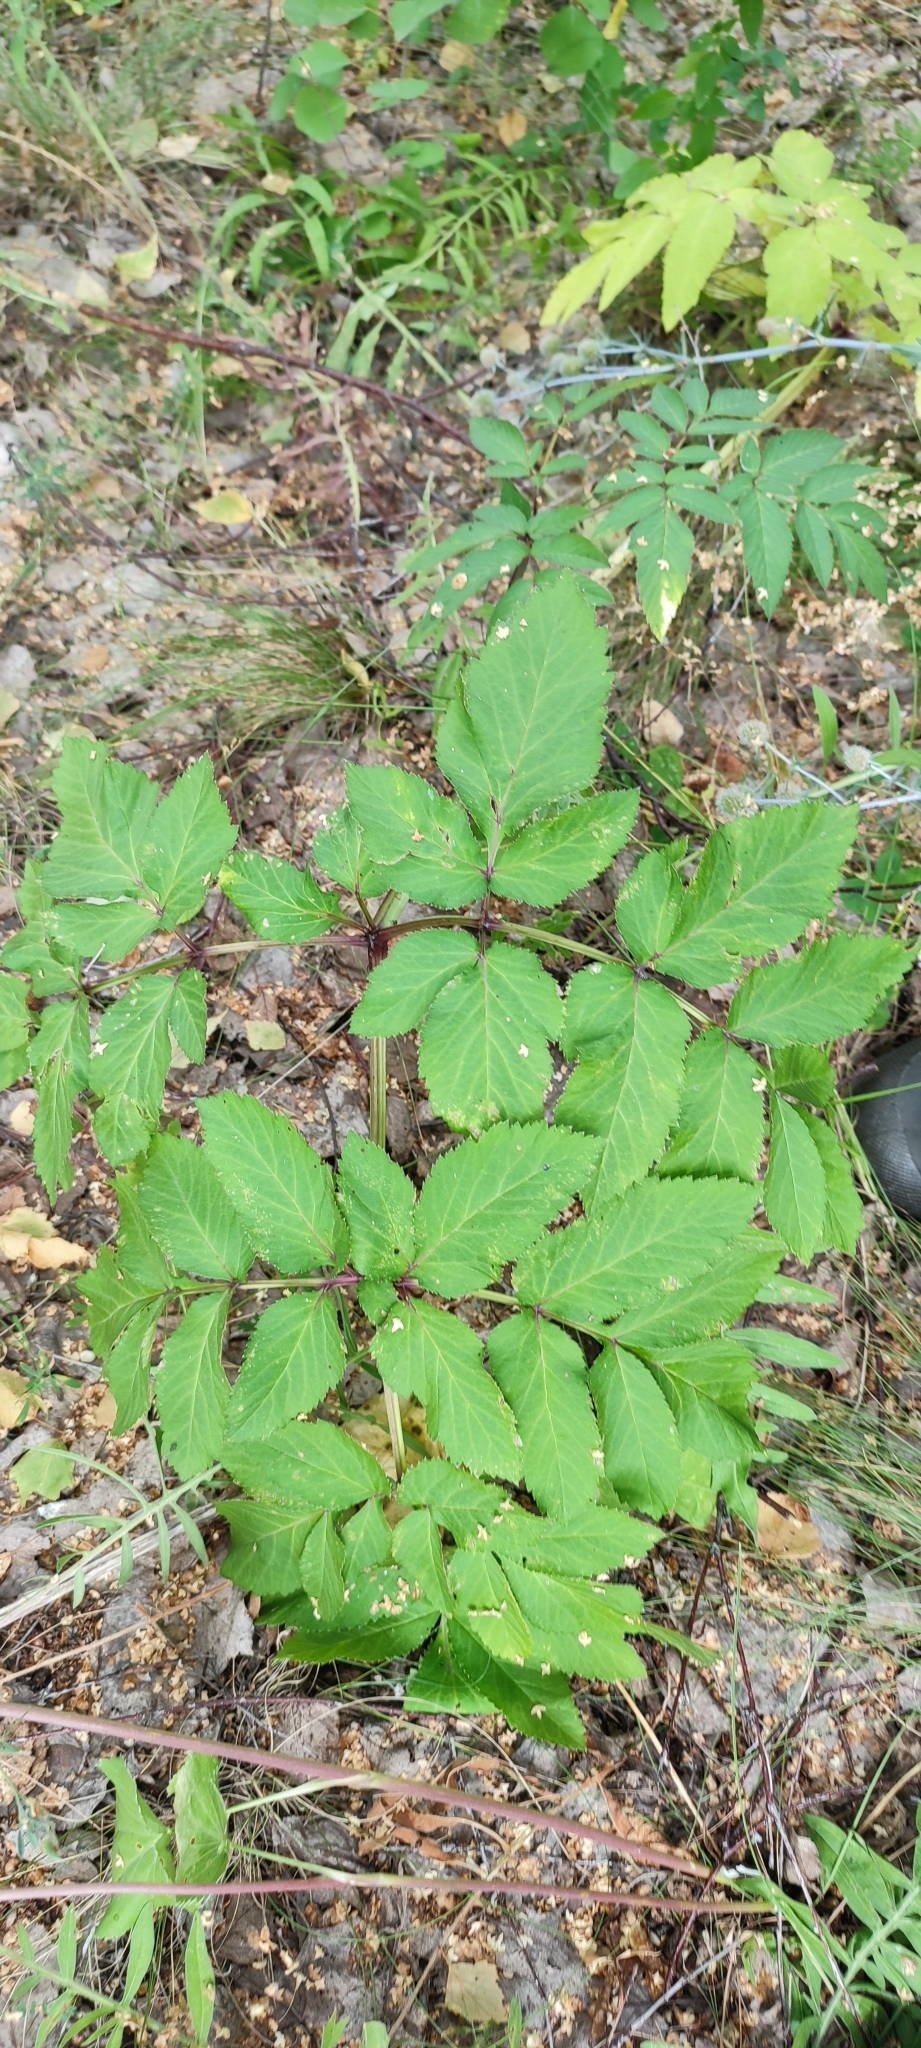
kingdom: Plantae
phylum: Tracheophyta
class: Magnoliopsida
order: Apiales
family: Apiaceae
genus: Angelica
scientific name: Angelica sylvestris
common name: Wild angelica
